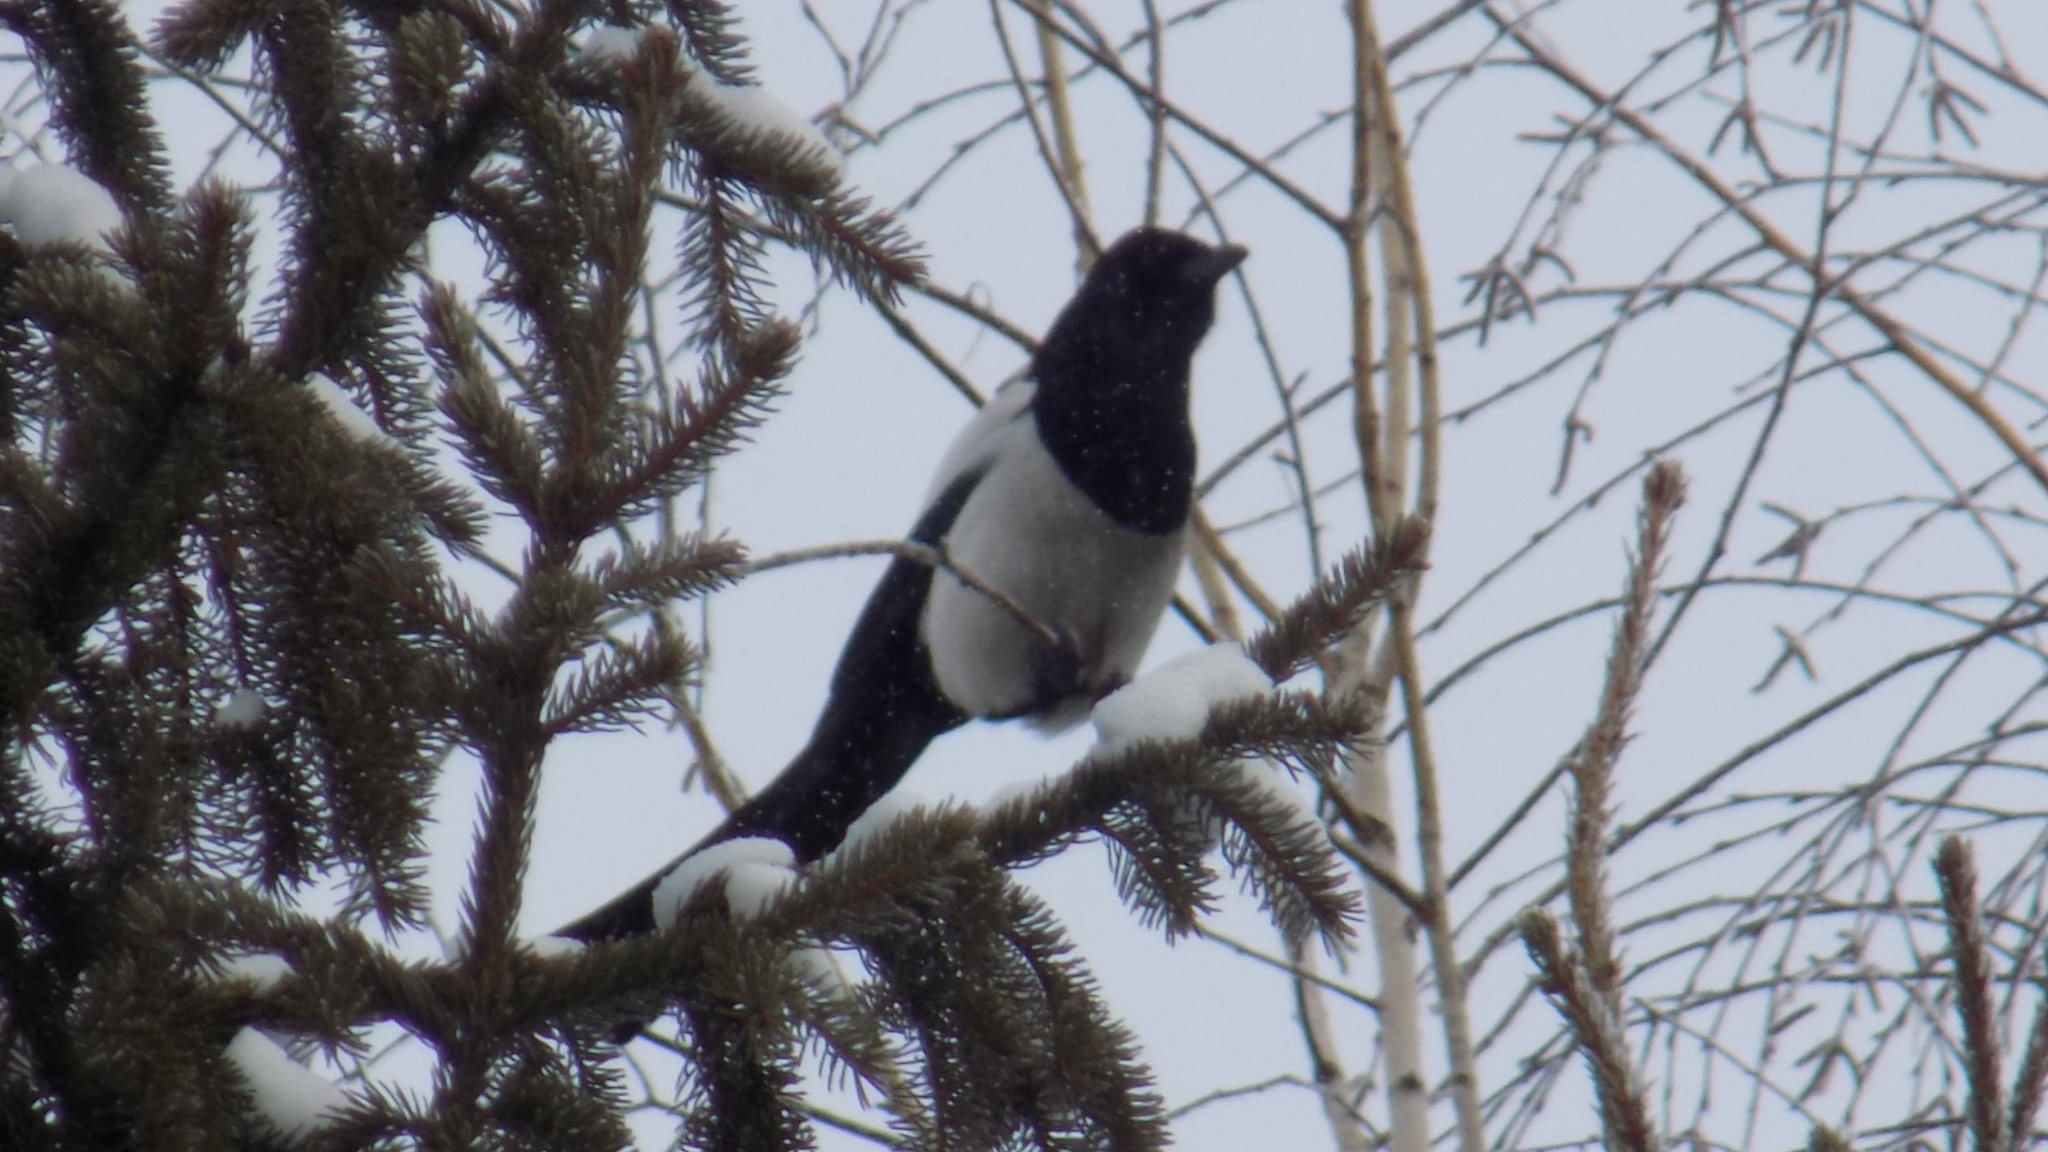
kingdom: Animalia
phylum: Chordata
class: Aves
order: Passeriformes
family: Corvidae
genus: Pica
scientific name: Pica pica
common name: Eurasian magpie
